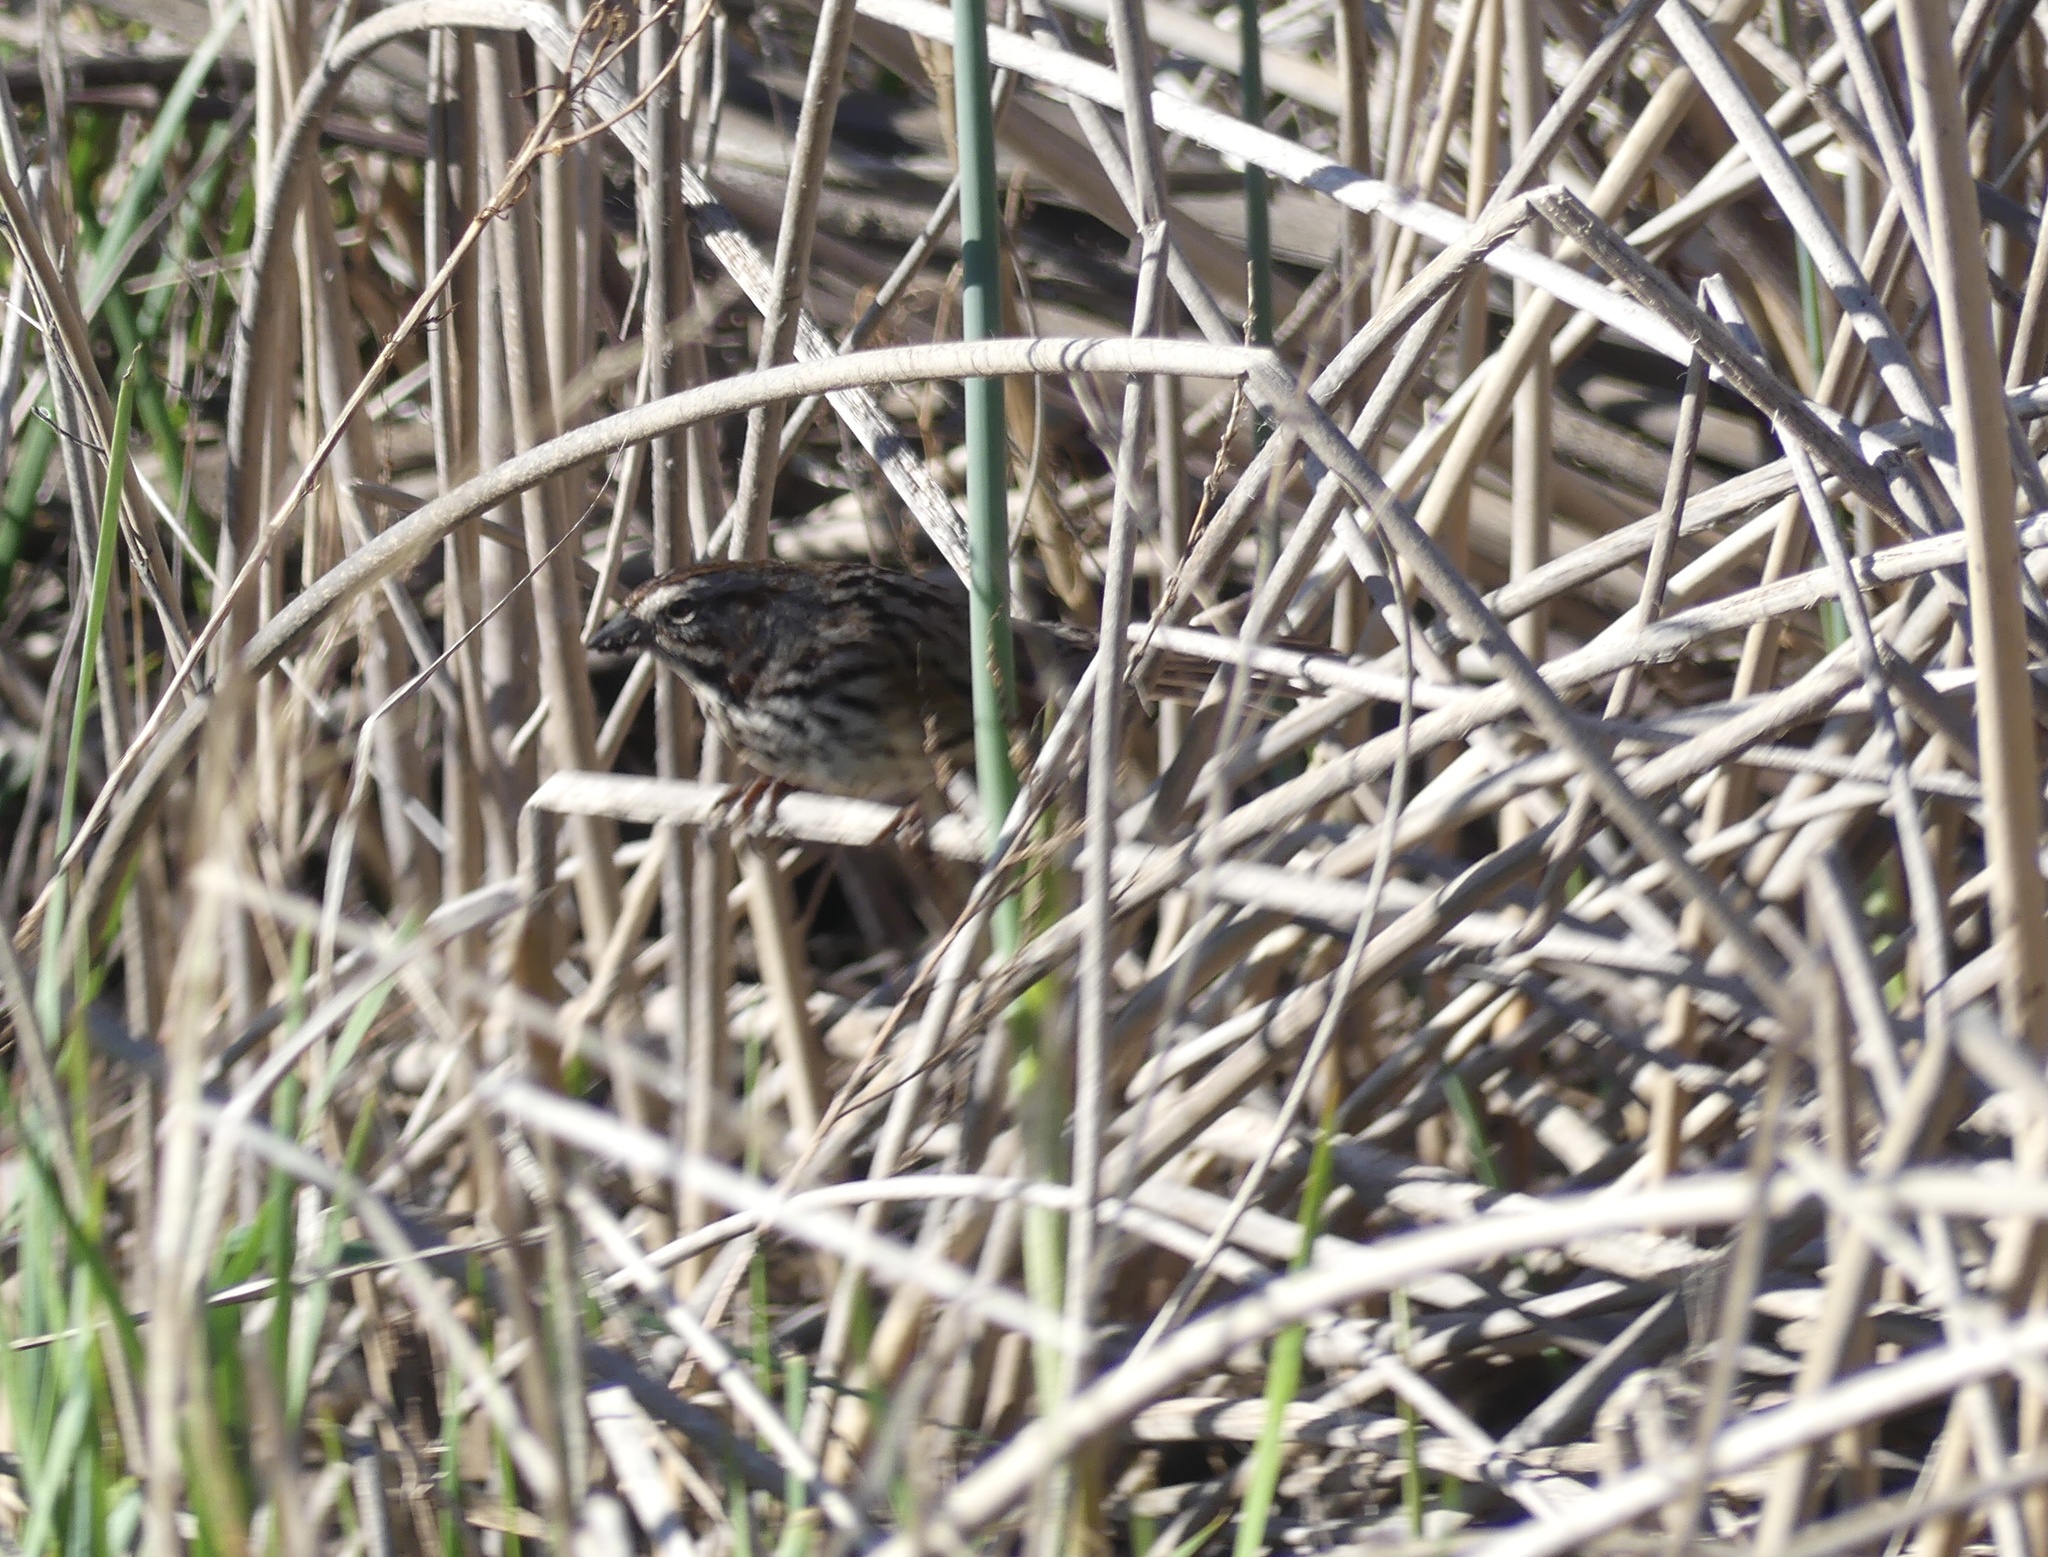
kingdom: Animalia
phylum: Chordata
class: Aves
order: Passeriformes
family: Passerellidae
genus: Melospiza
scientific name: Melospiza melodia
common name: Song sparrow
